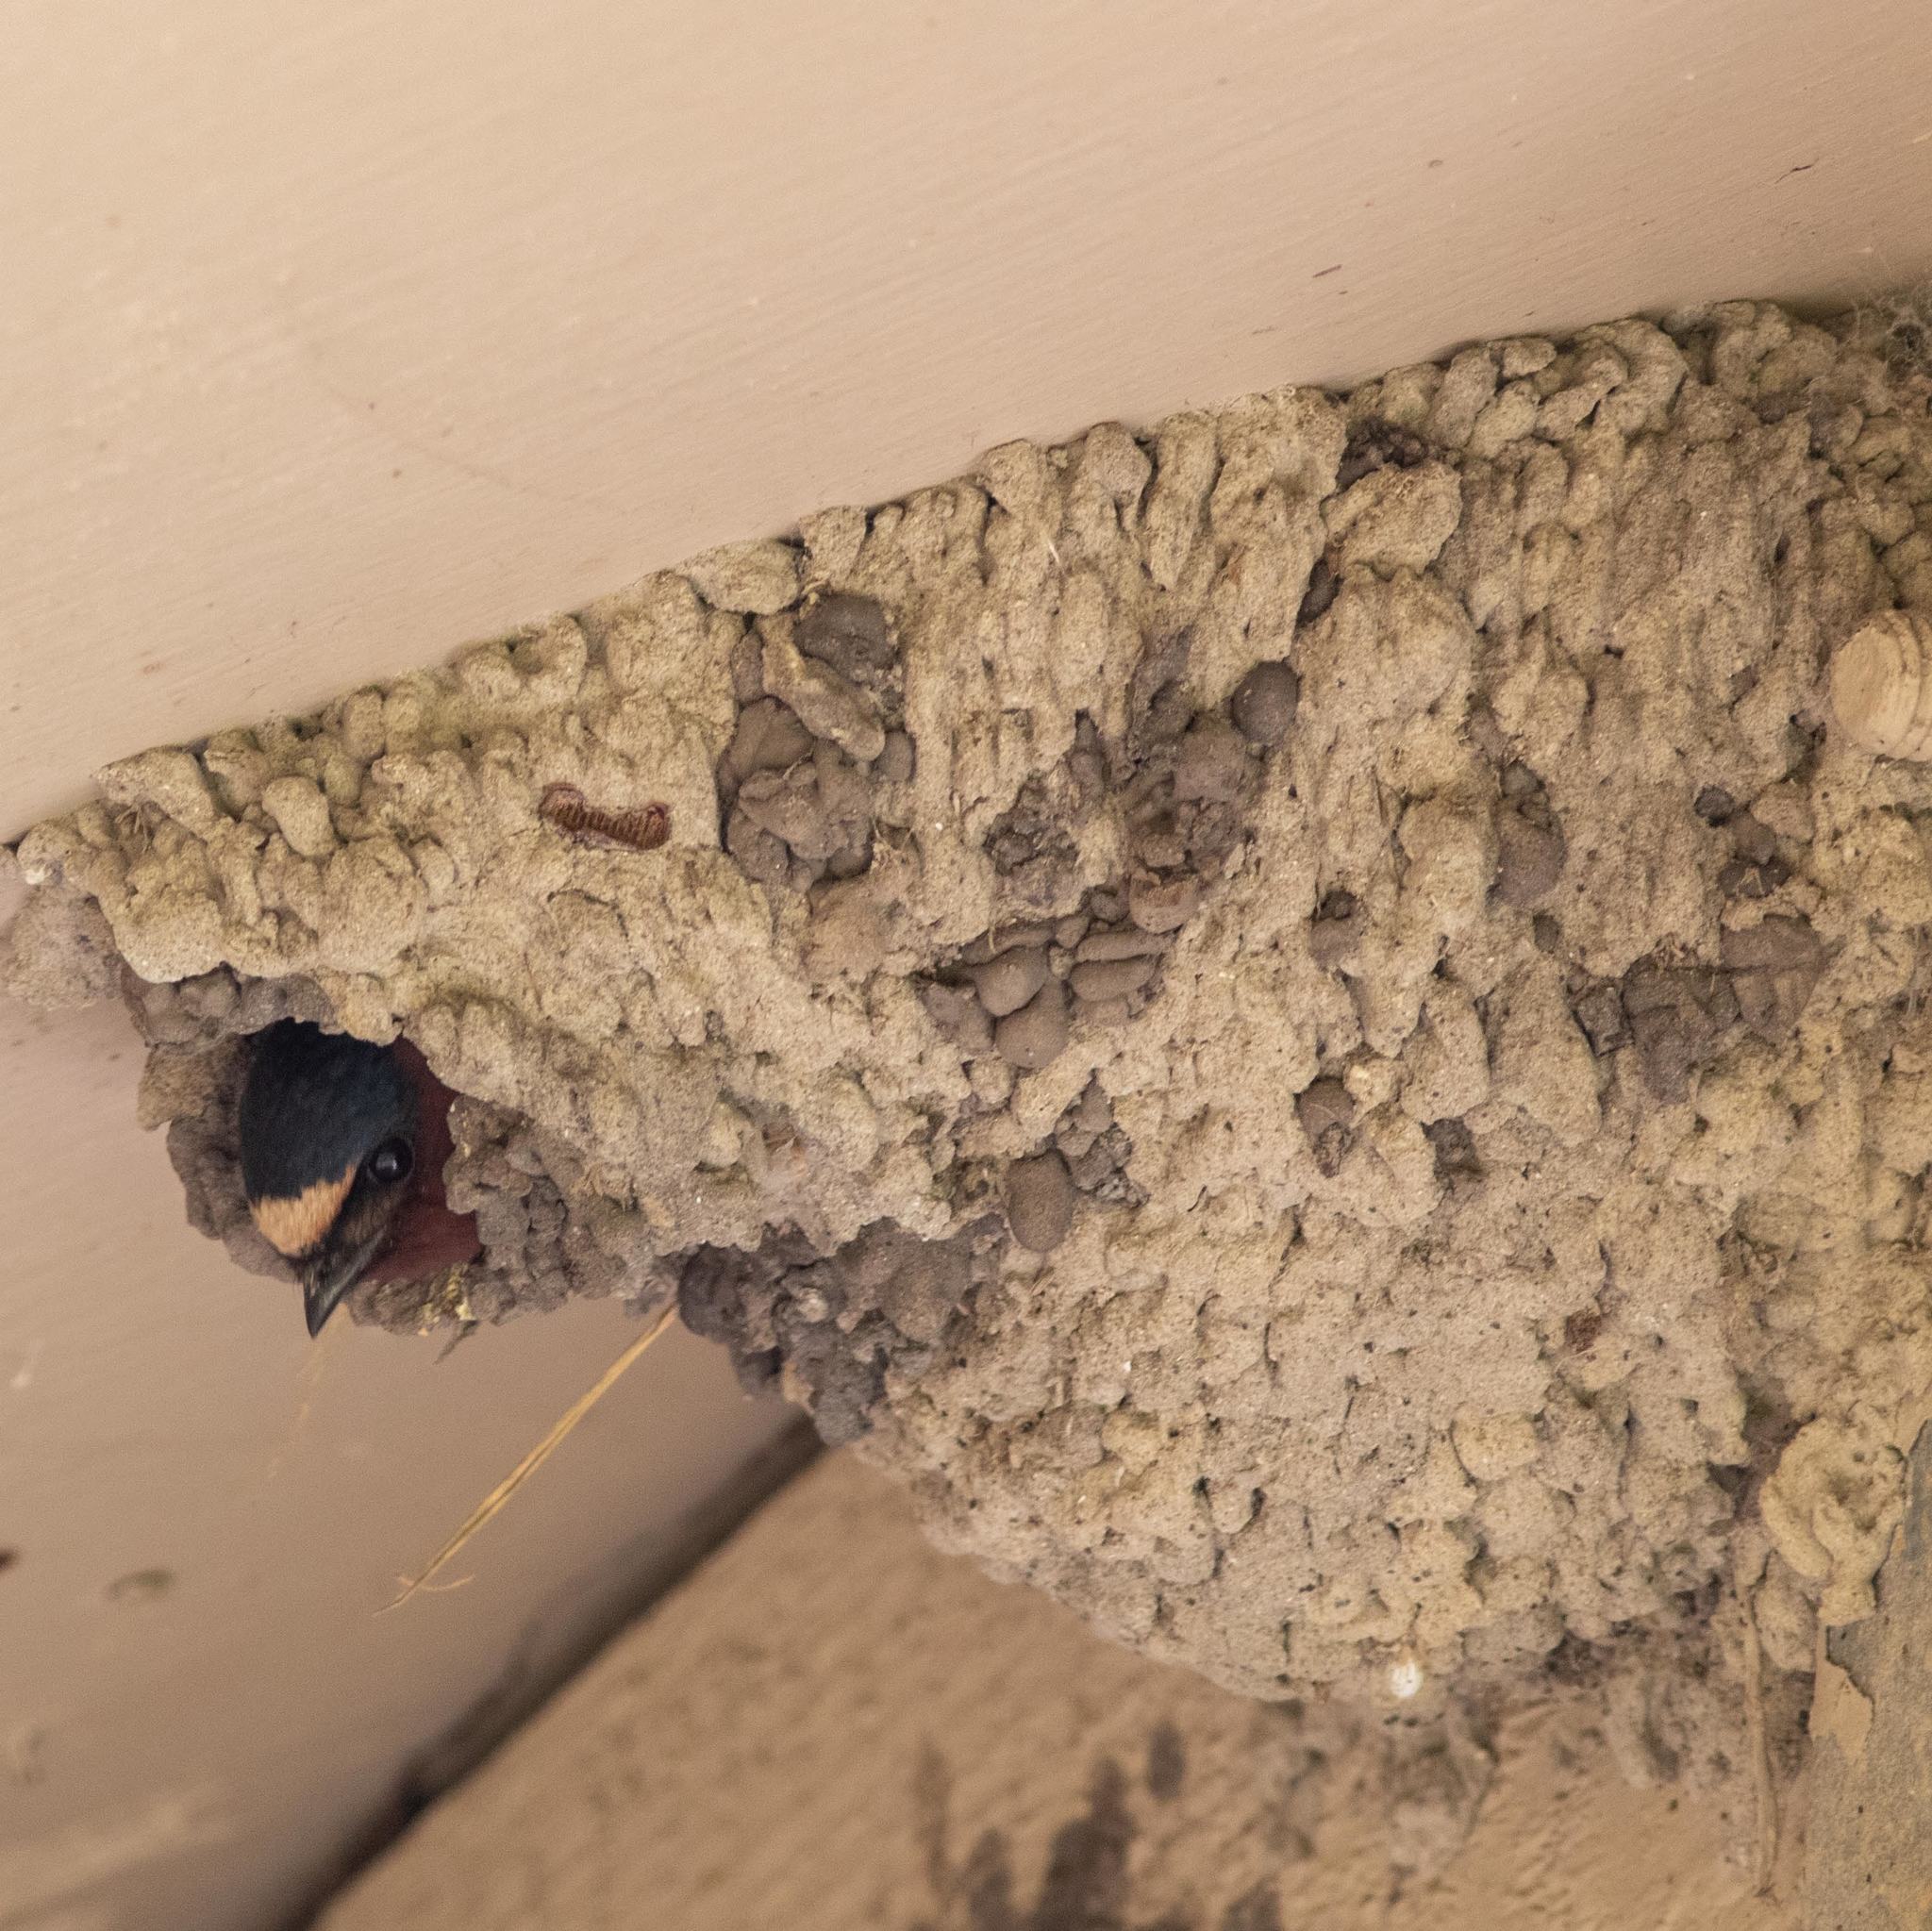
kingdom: Animalia
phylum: Chordata
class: Aves
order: Passeriformes
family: Hirundinidae
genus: Petrochelidon
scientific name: Petrochelidon pyrrhonota
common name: American cliff swallow
